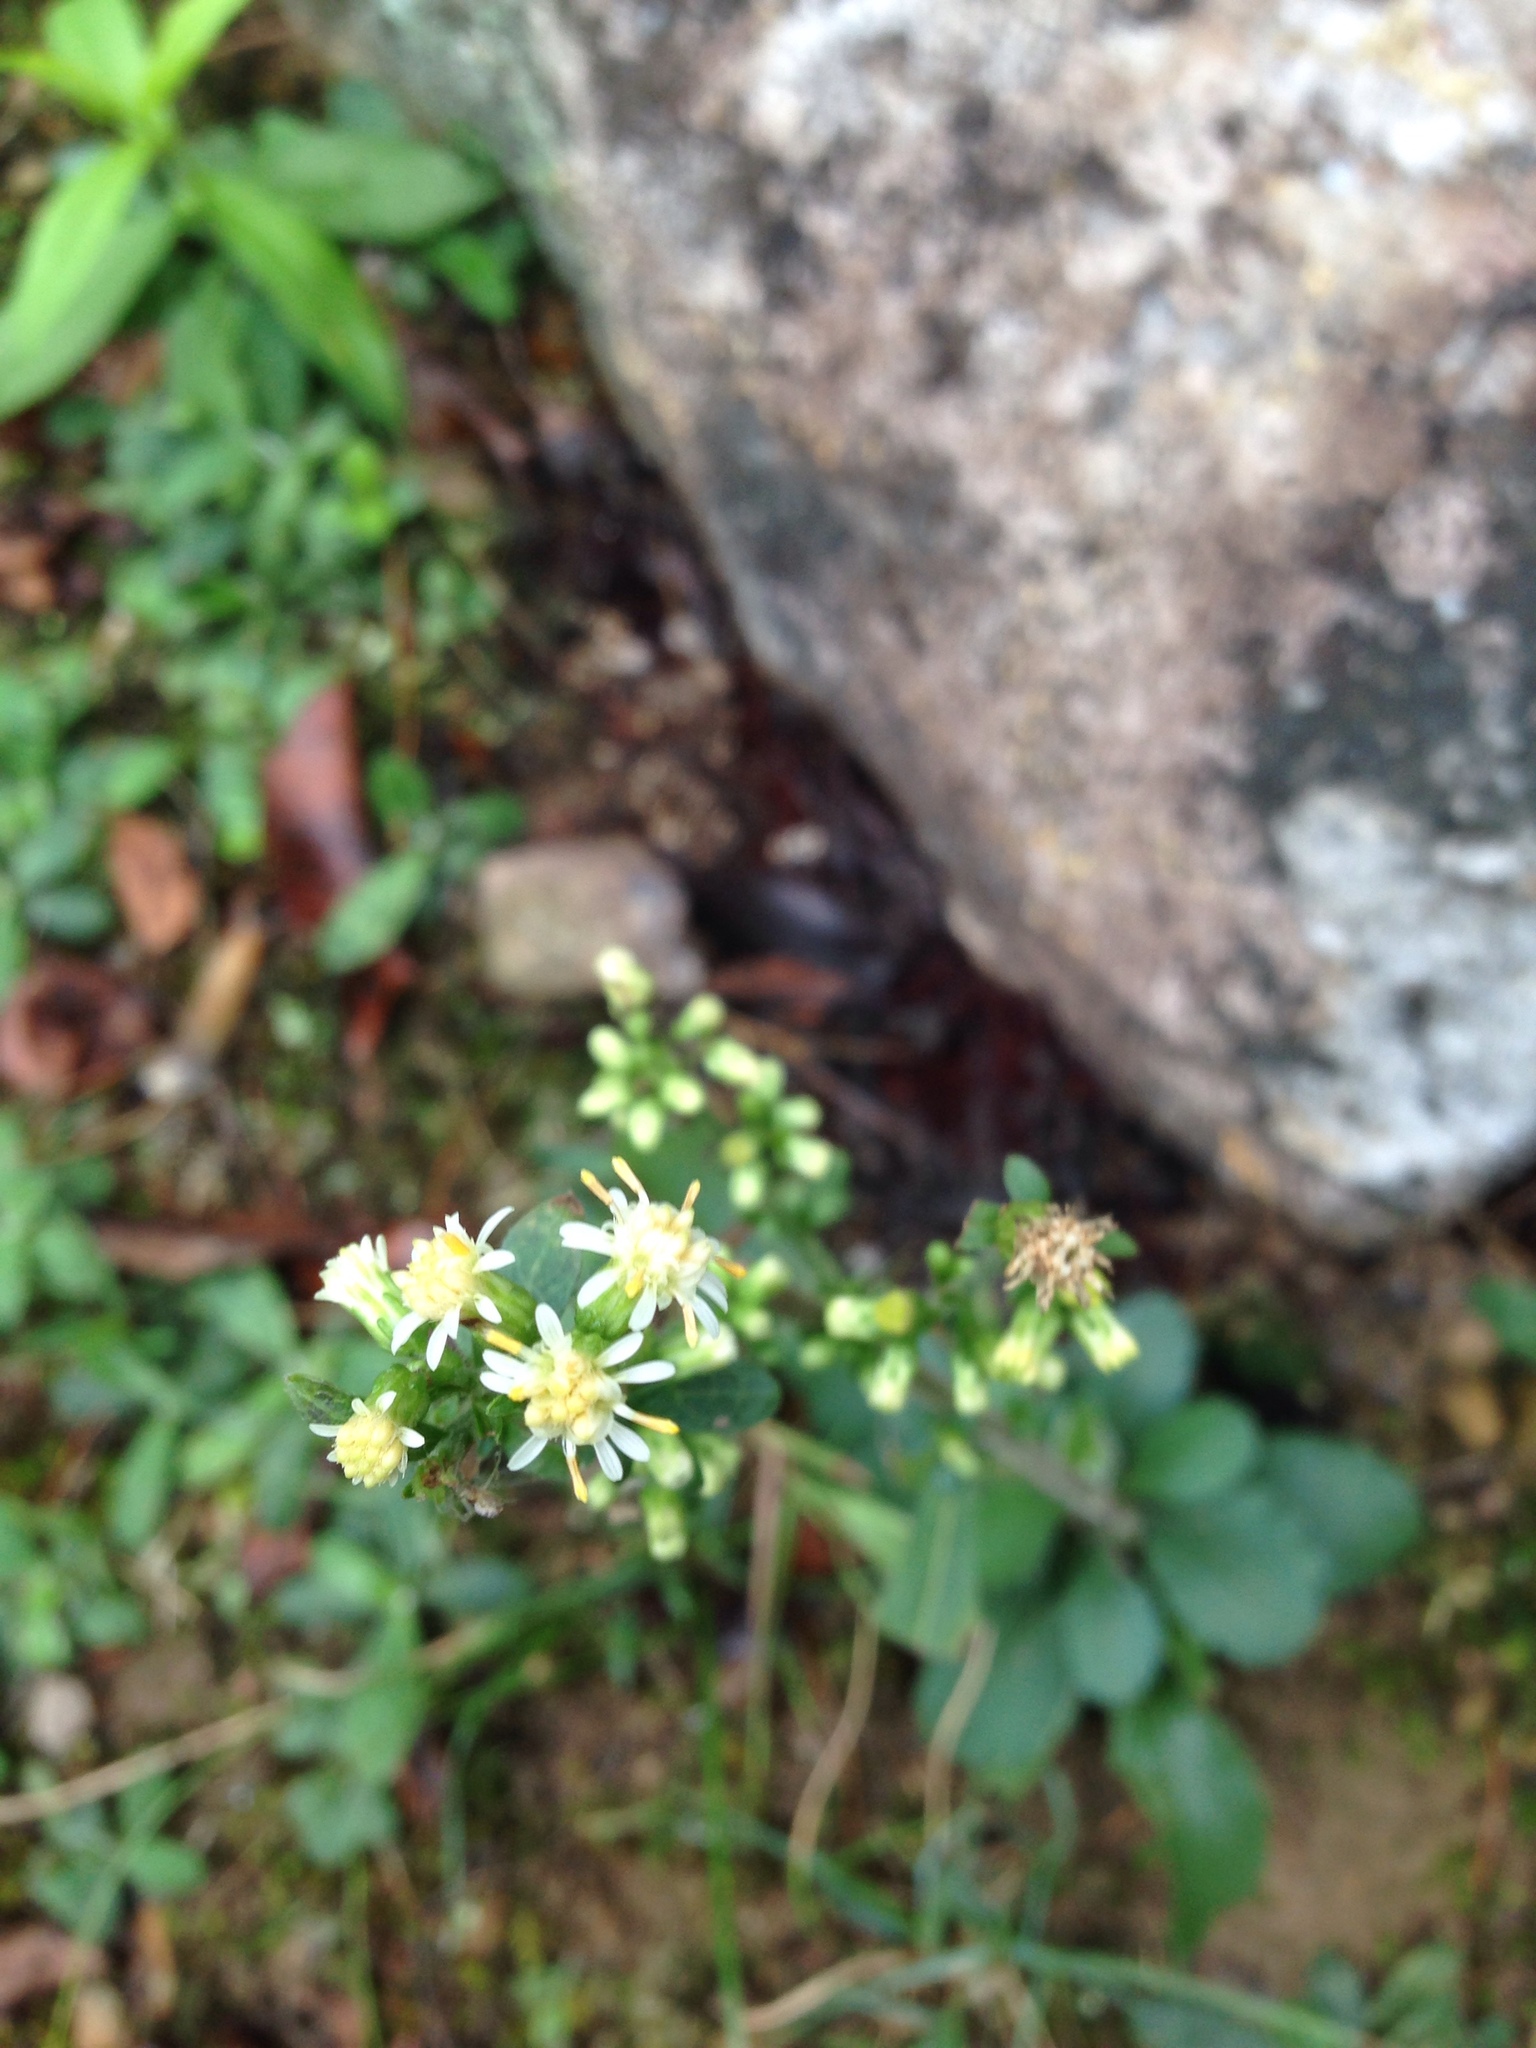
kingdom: Plantae
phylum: Tracheophyta
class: Magnoliopsida
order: Asterales
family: Asteraceae
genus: Solidago
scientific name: Solidago bicolor
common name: Silverrod
